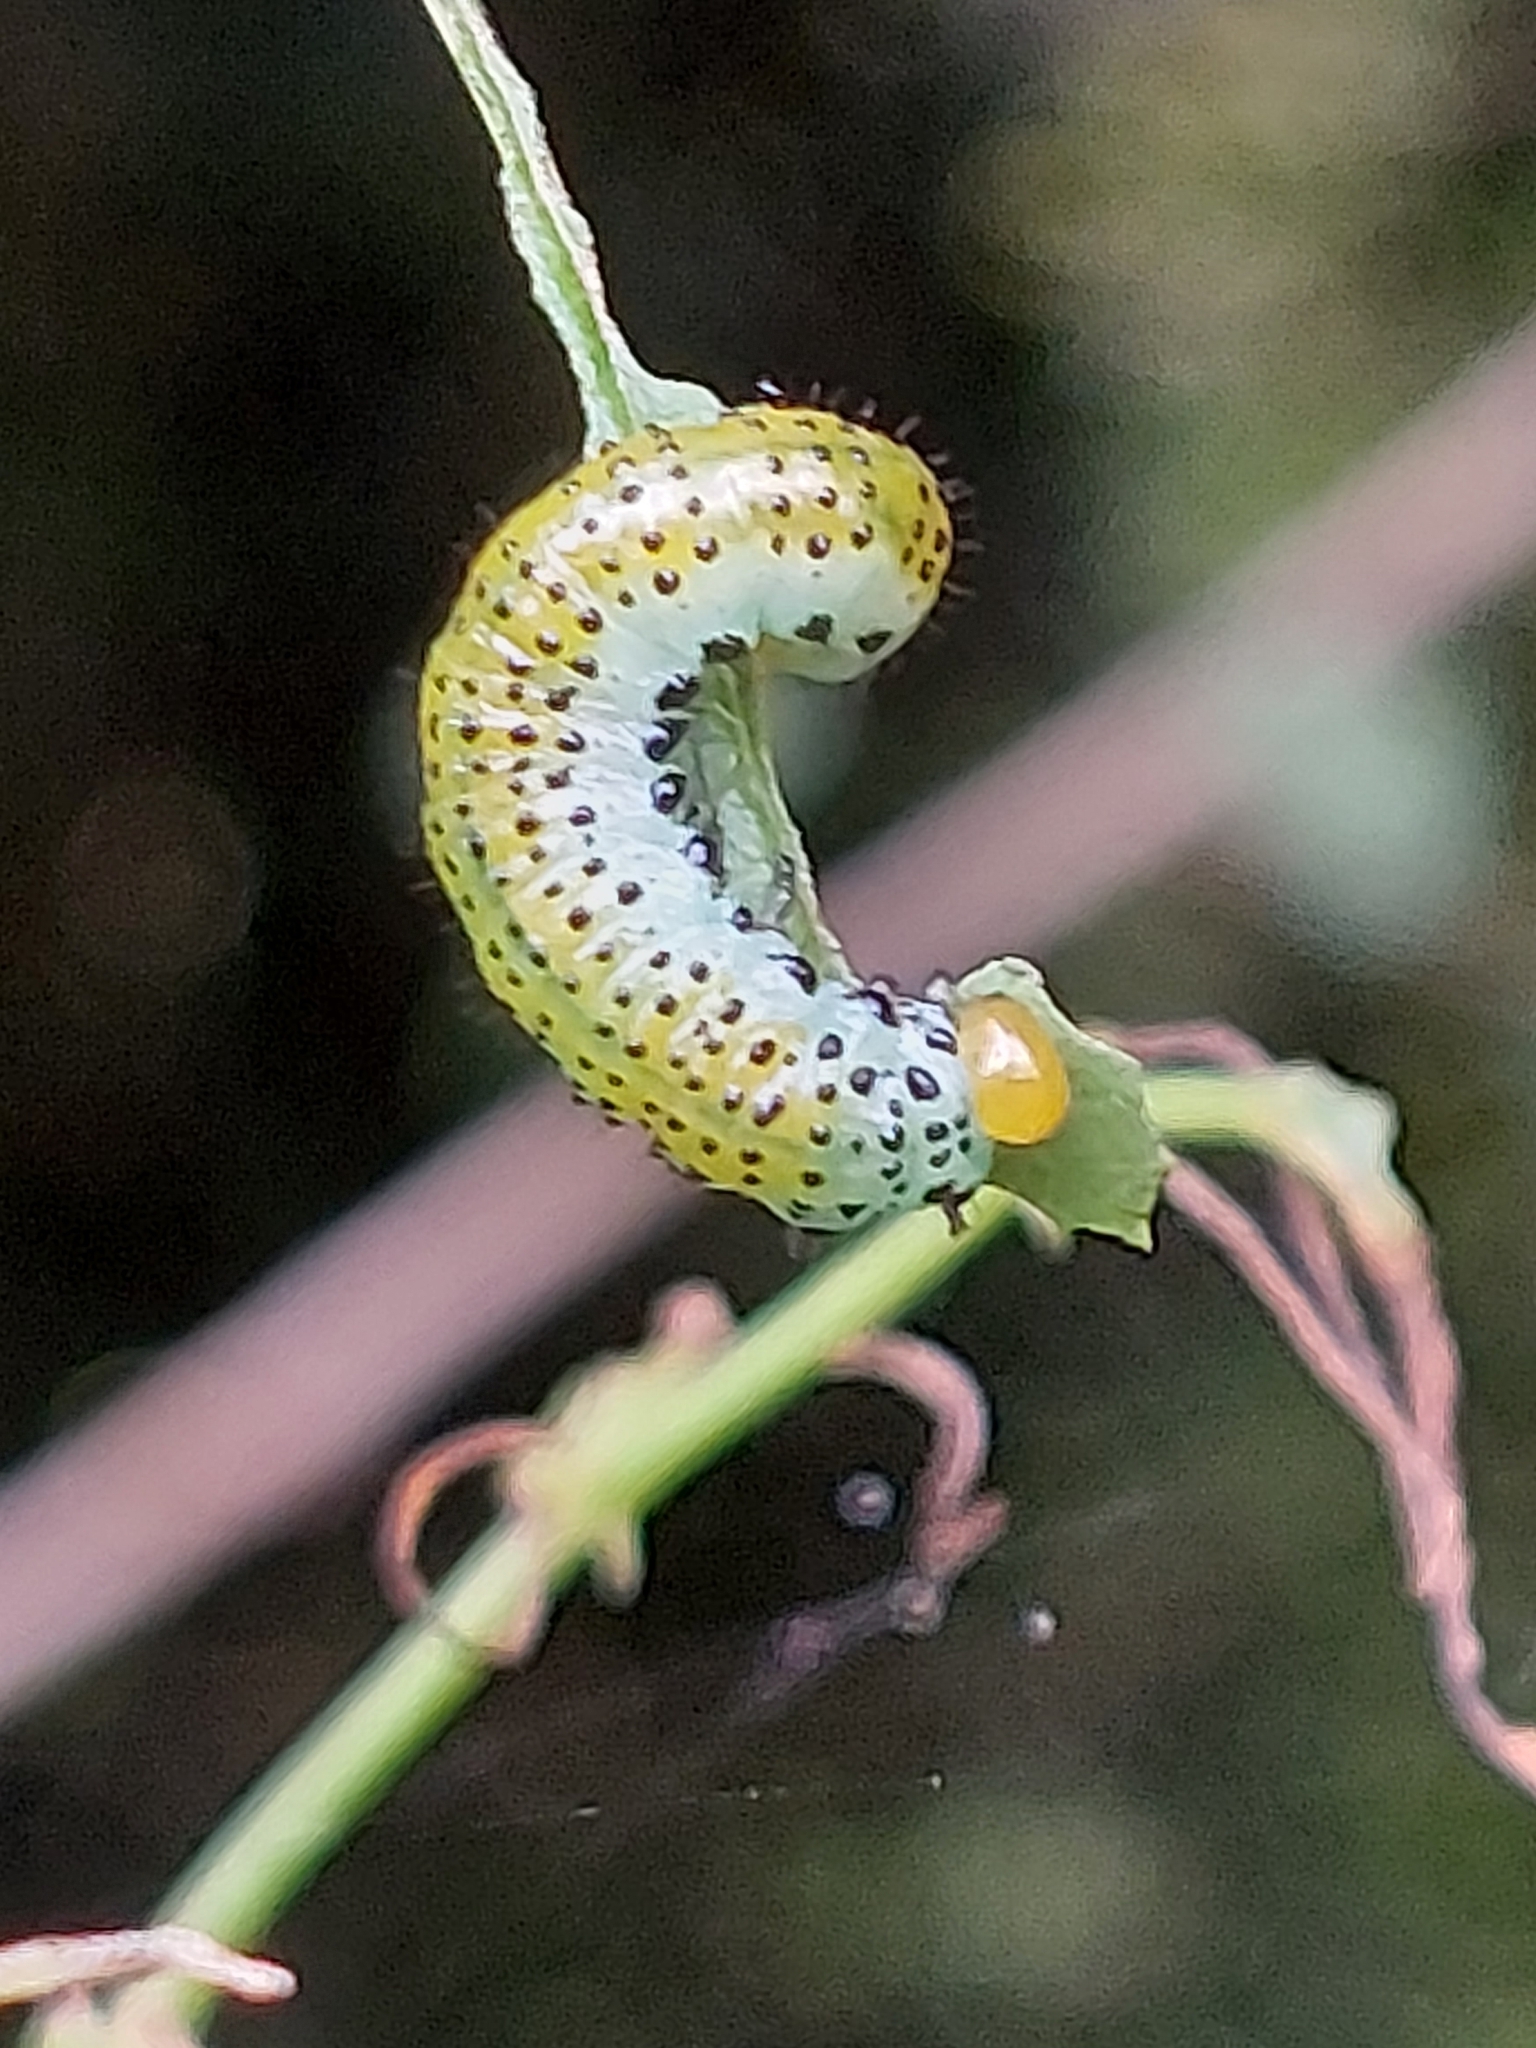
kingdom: Animalia
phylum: Arthropoda
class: Insecta
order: Hymenoptera
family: Argidae
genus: Arge
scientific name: Arge pagana
